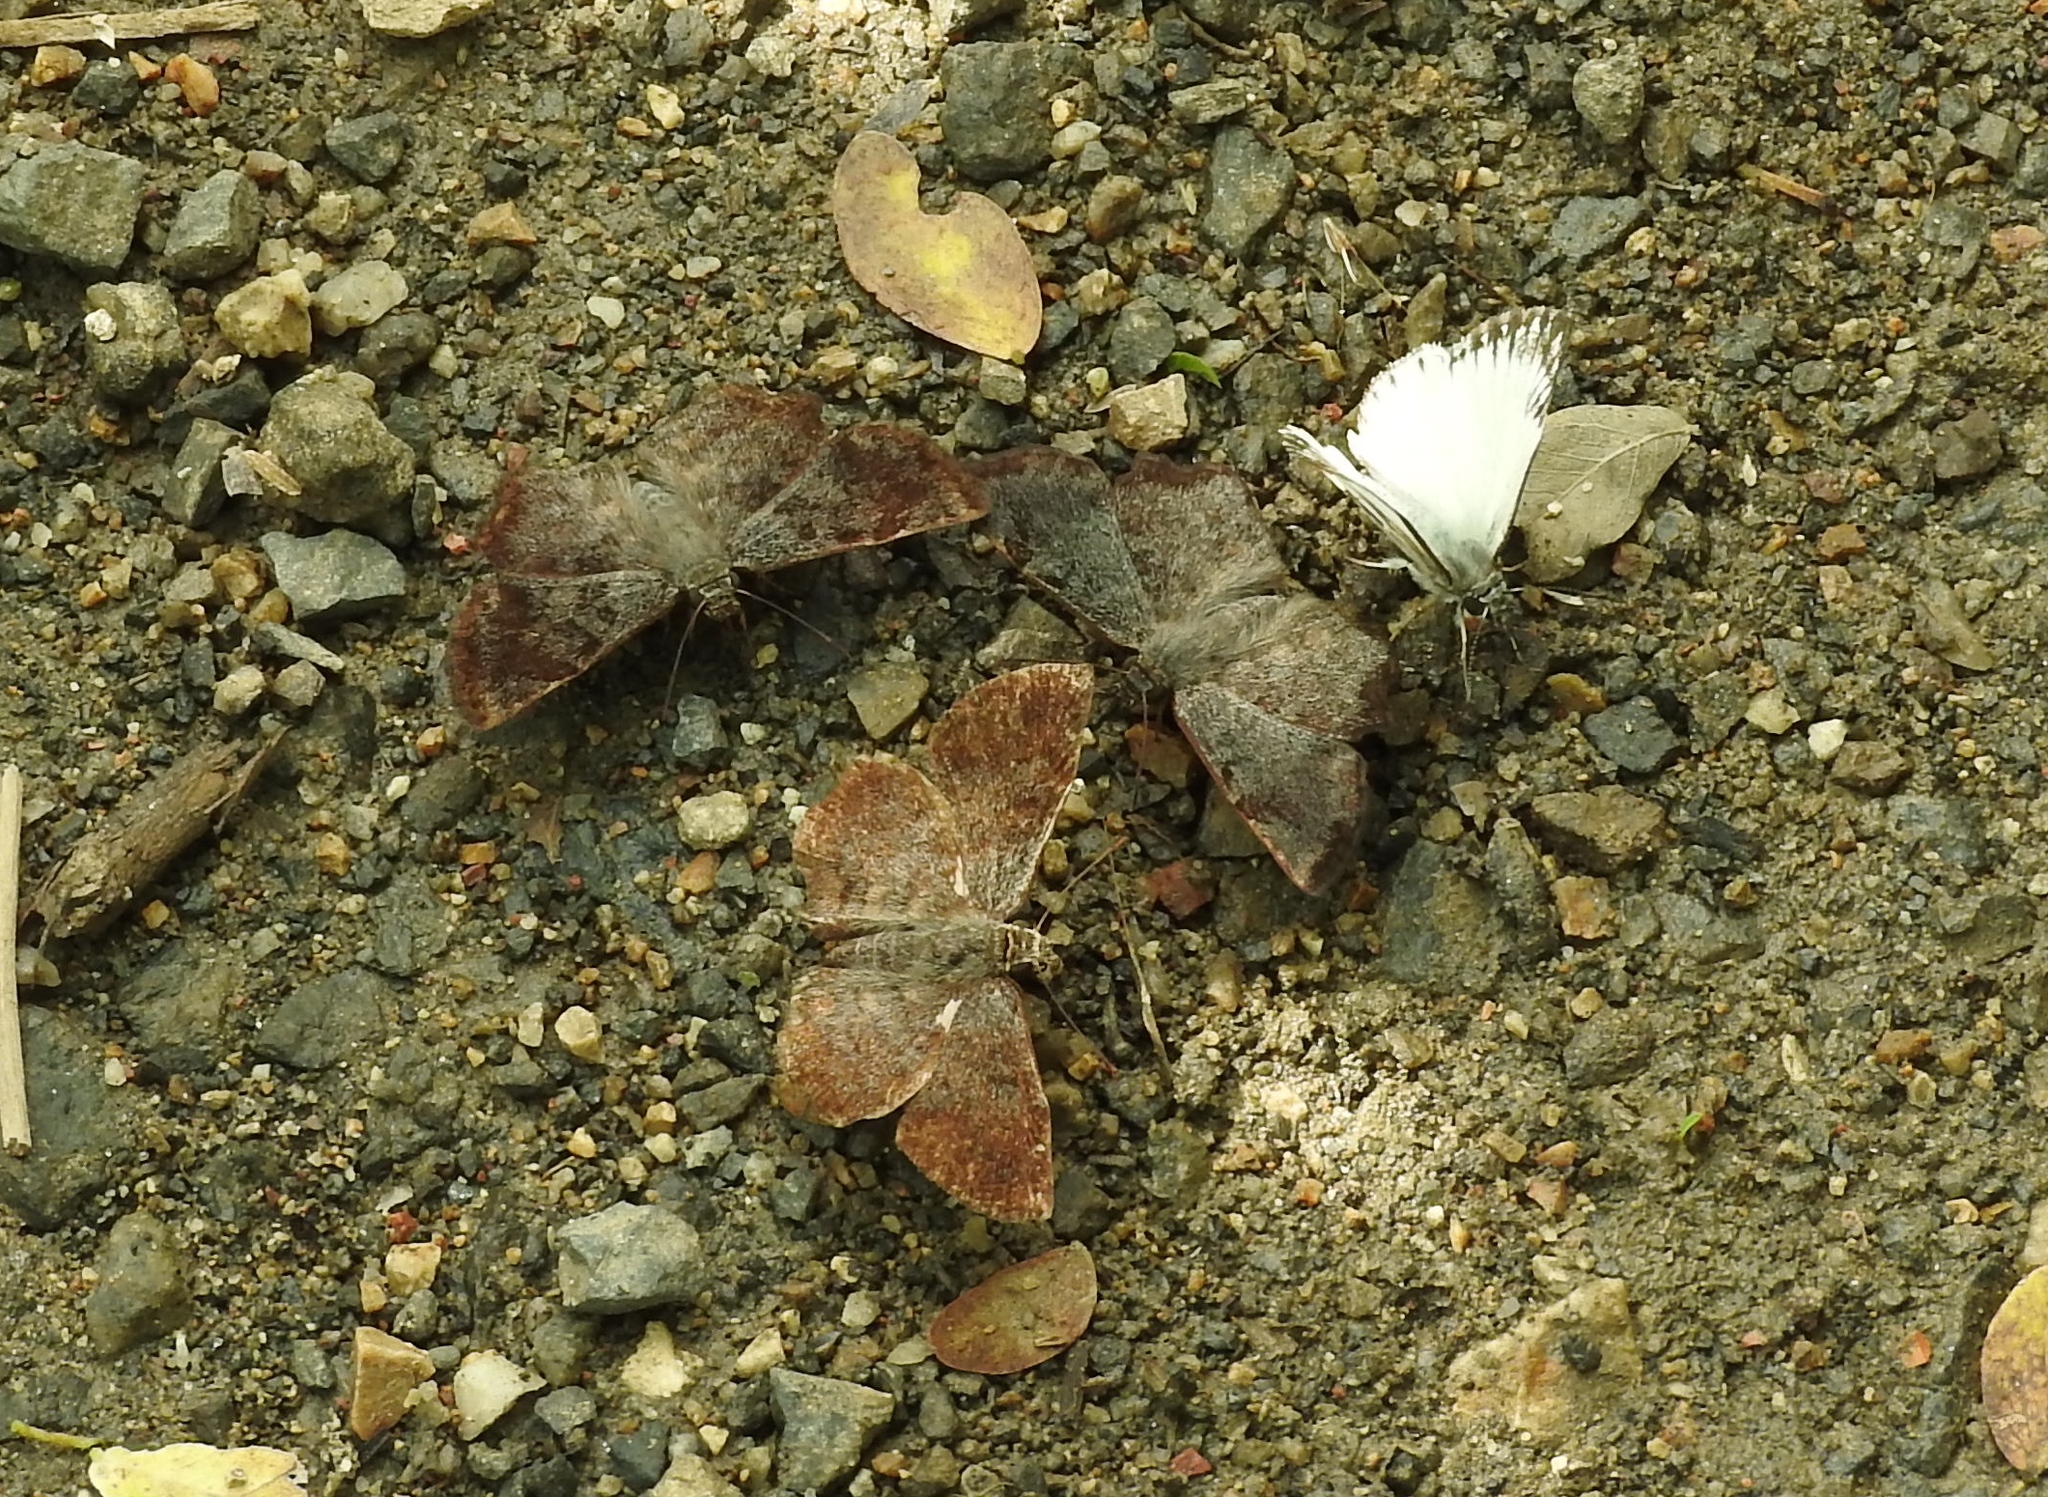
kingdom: Animalia
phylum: Arthropoda
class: Insecta
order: Lepidoptera
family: Hesperiidae
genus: Antigonus
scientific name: Antigonus erosus
